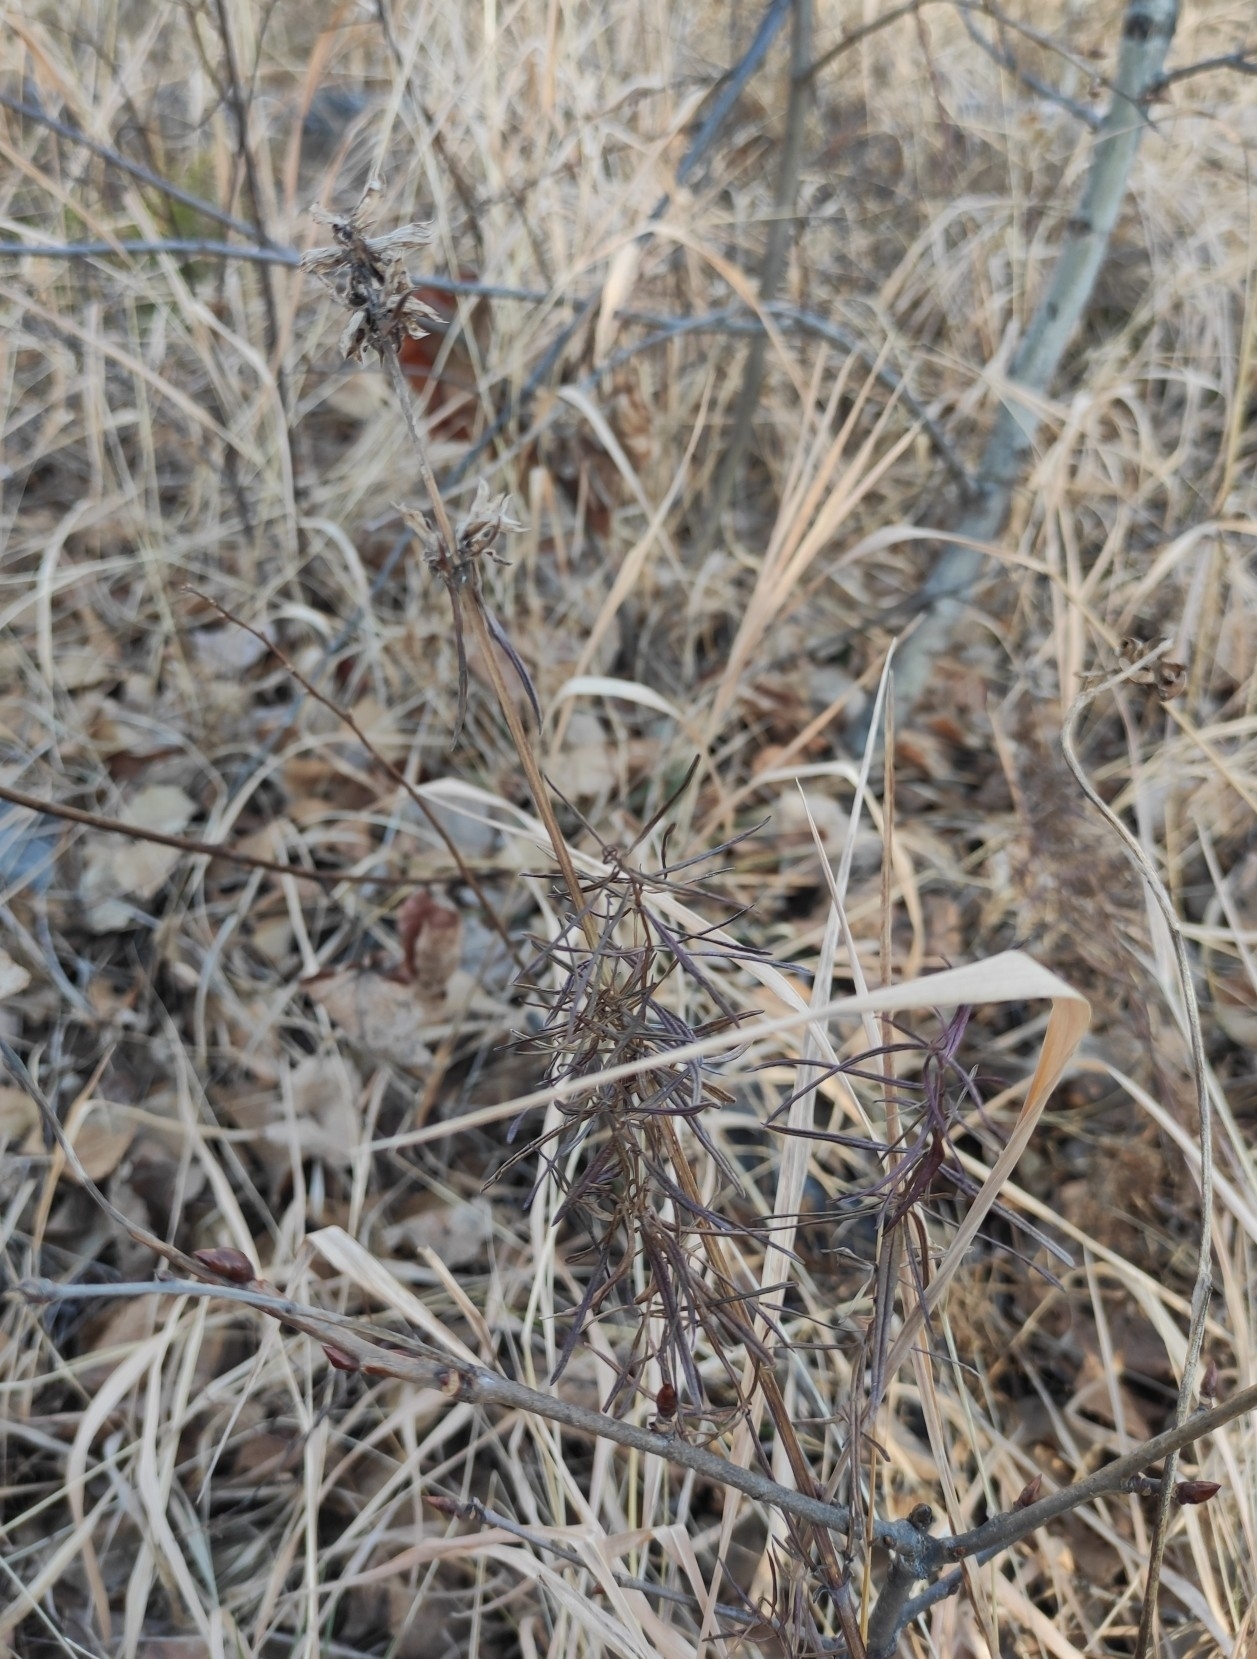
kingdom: Plantae
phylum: Tracheophyta
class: Magnoliopsida
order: Lamiales
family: Lamiaceae
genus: Dracocephalum
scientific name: Dracocephalum ruyschiana
